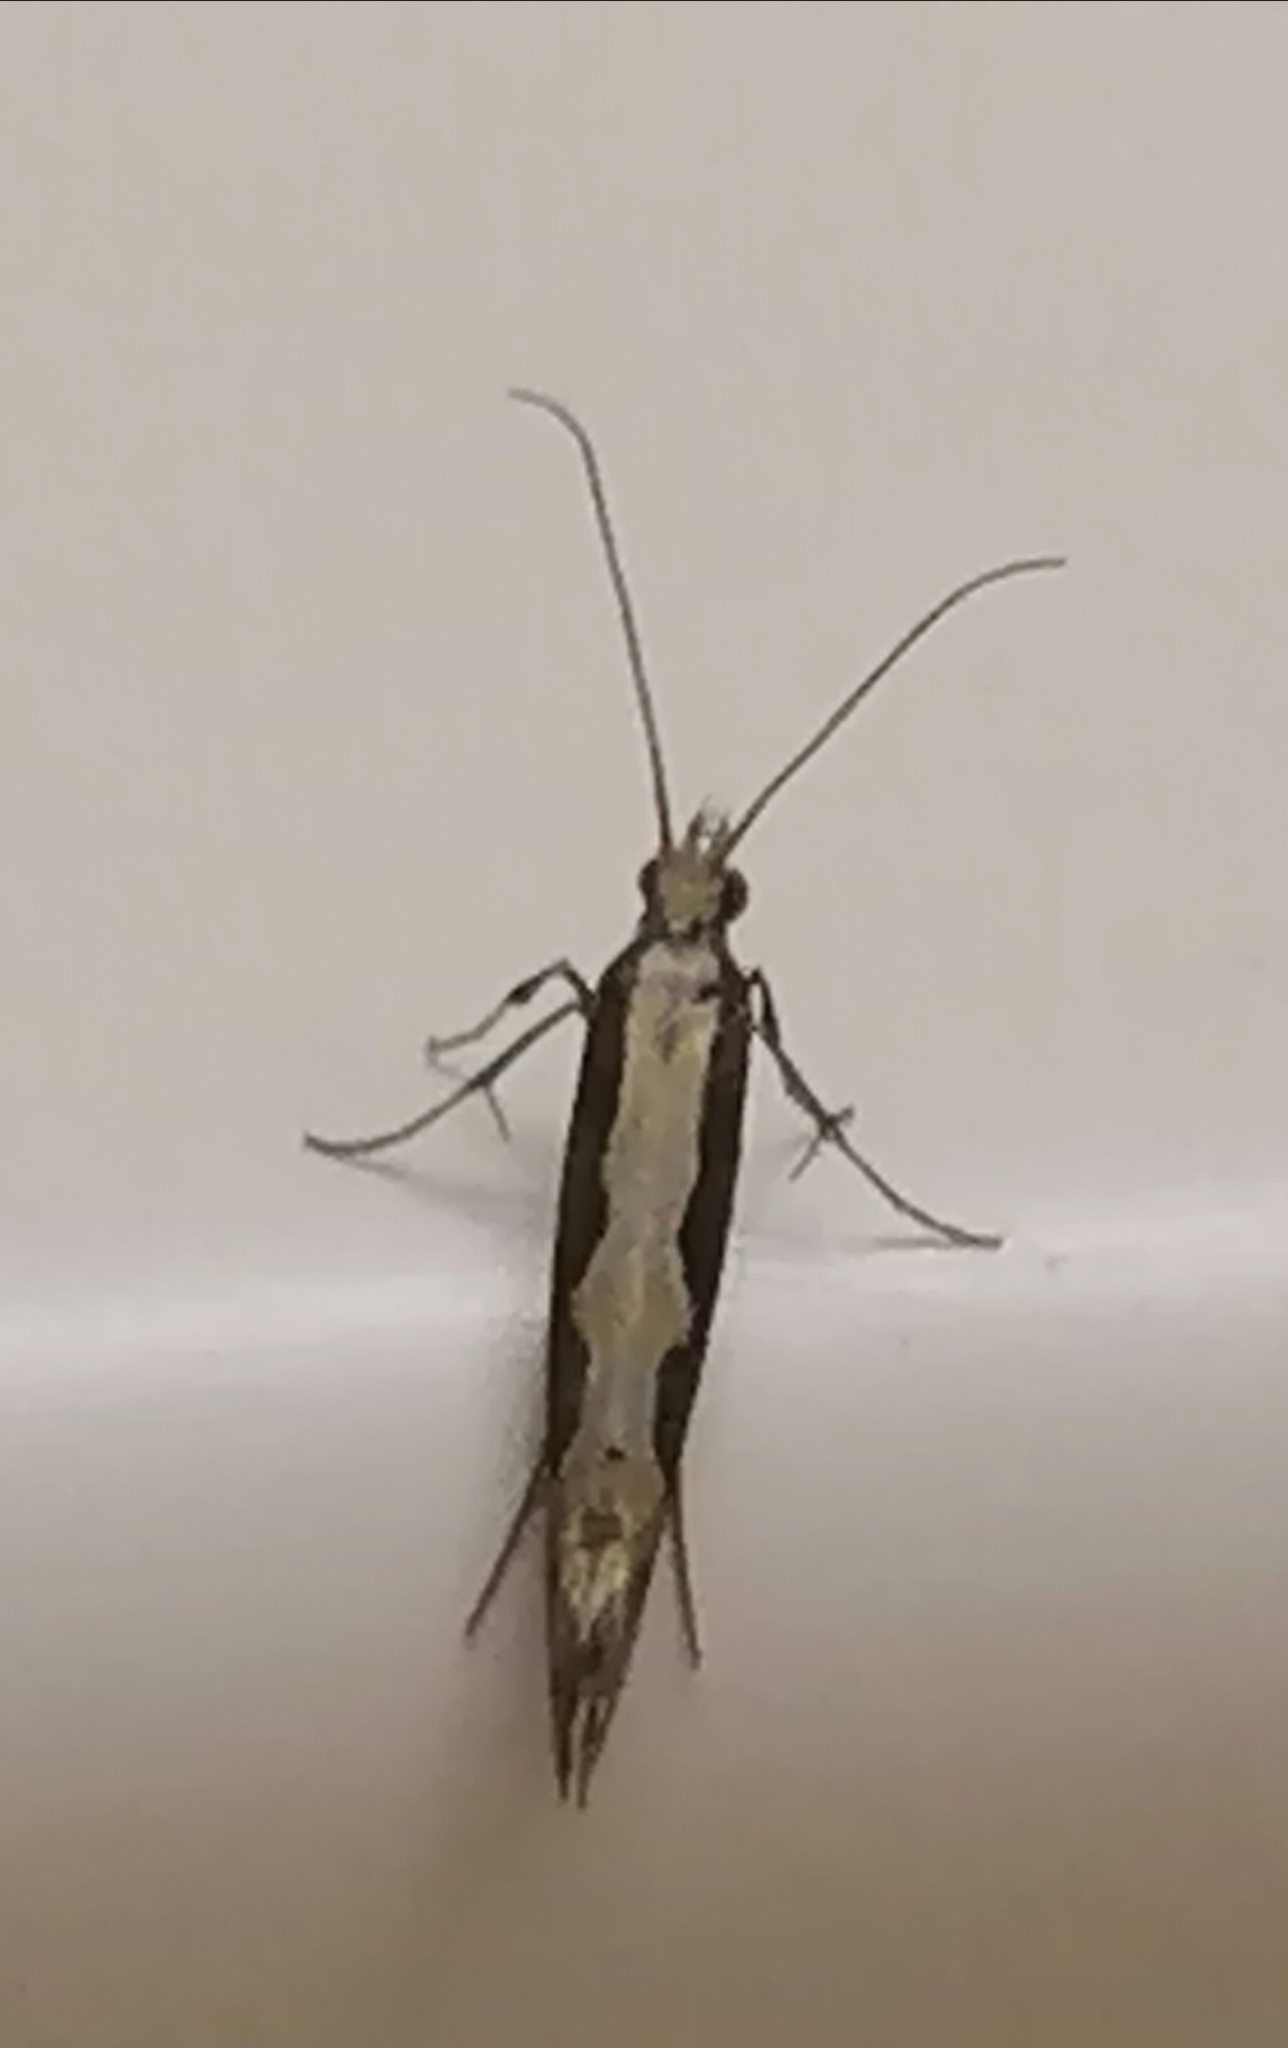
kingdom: Animalia
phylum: Arthropoda
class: Insecta
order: Lepidoptera
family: Plutellidae
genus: Plutella
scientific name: Plutella xylostella
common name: Diamond-back moth
